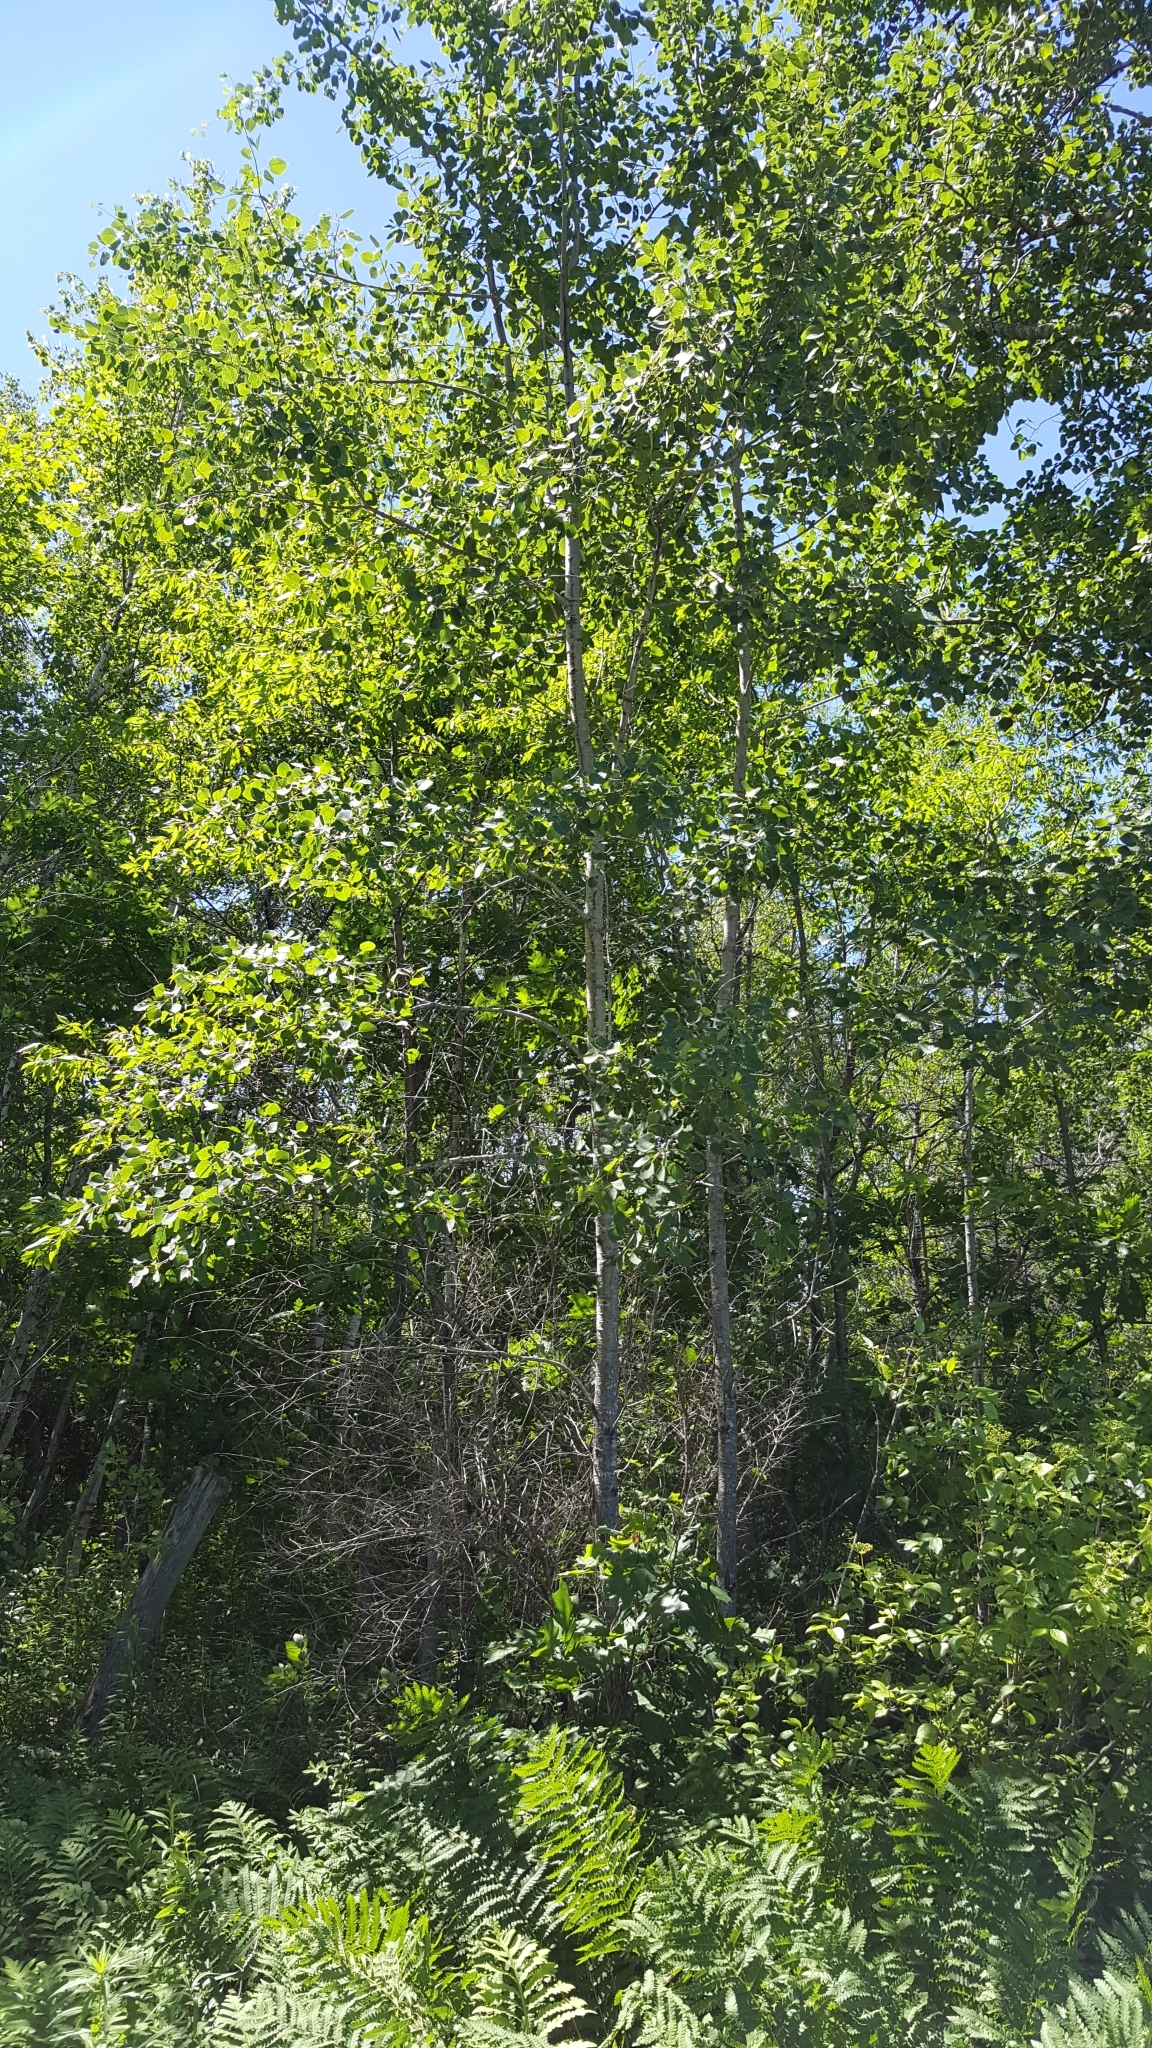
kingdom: Plantae
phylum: Tracheophyta
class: Magnoliopsida
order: Malpighiales
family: Salicaceae
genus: Populus
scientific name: Populus tremuloides
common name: Quaking aspen
